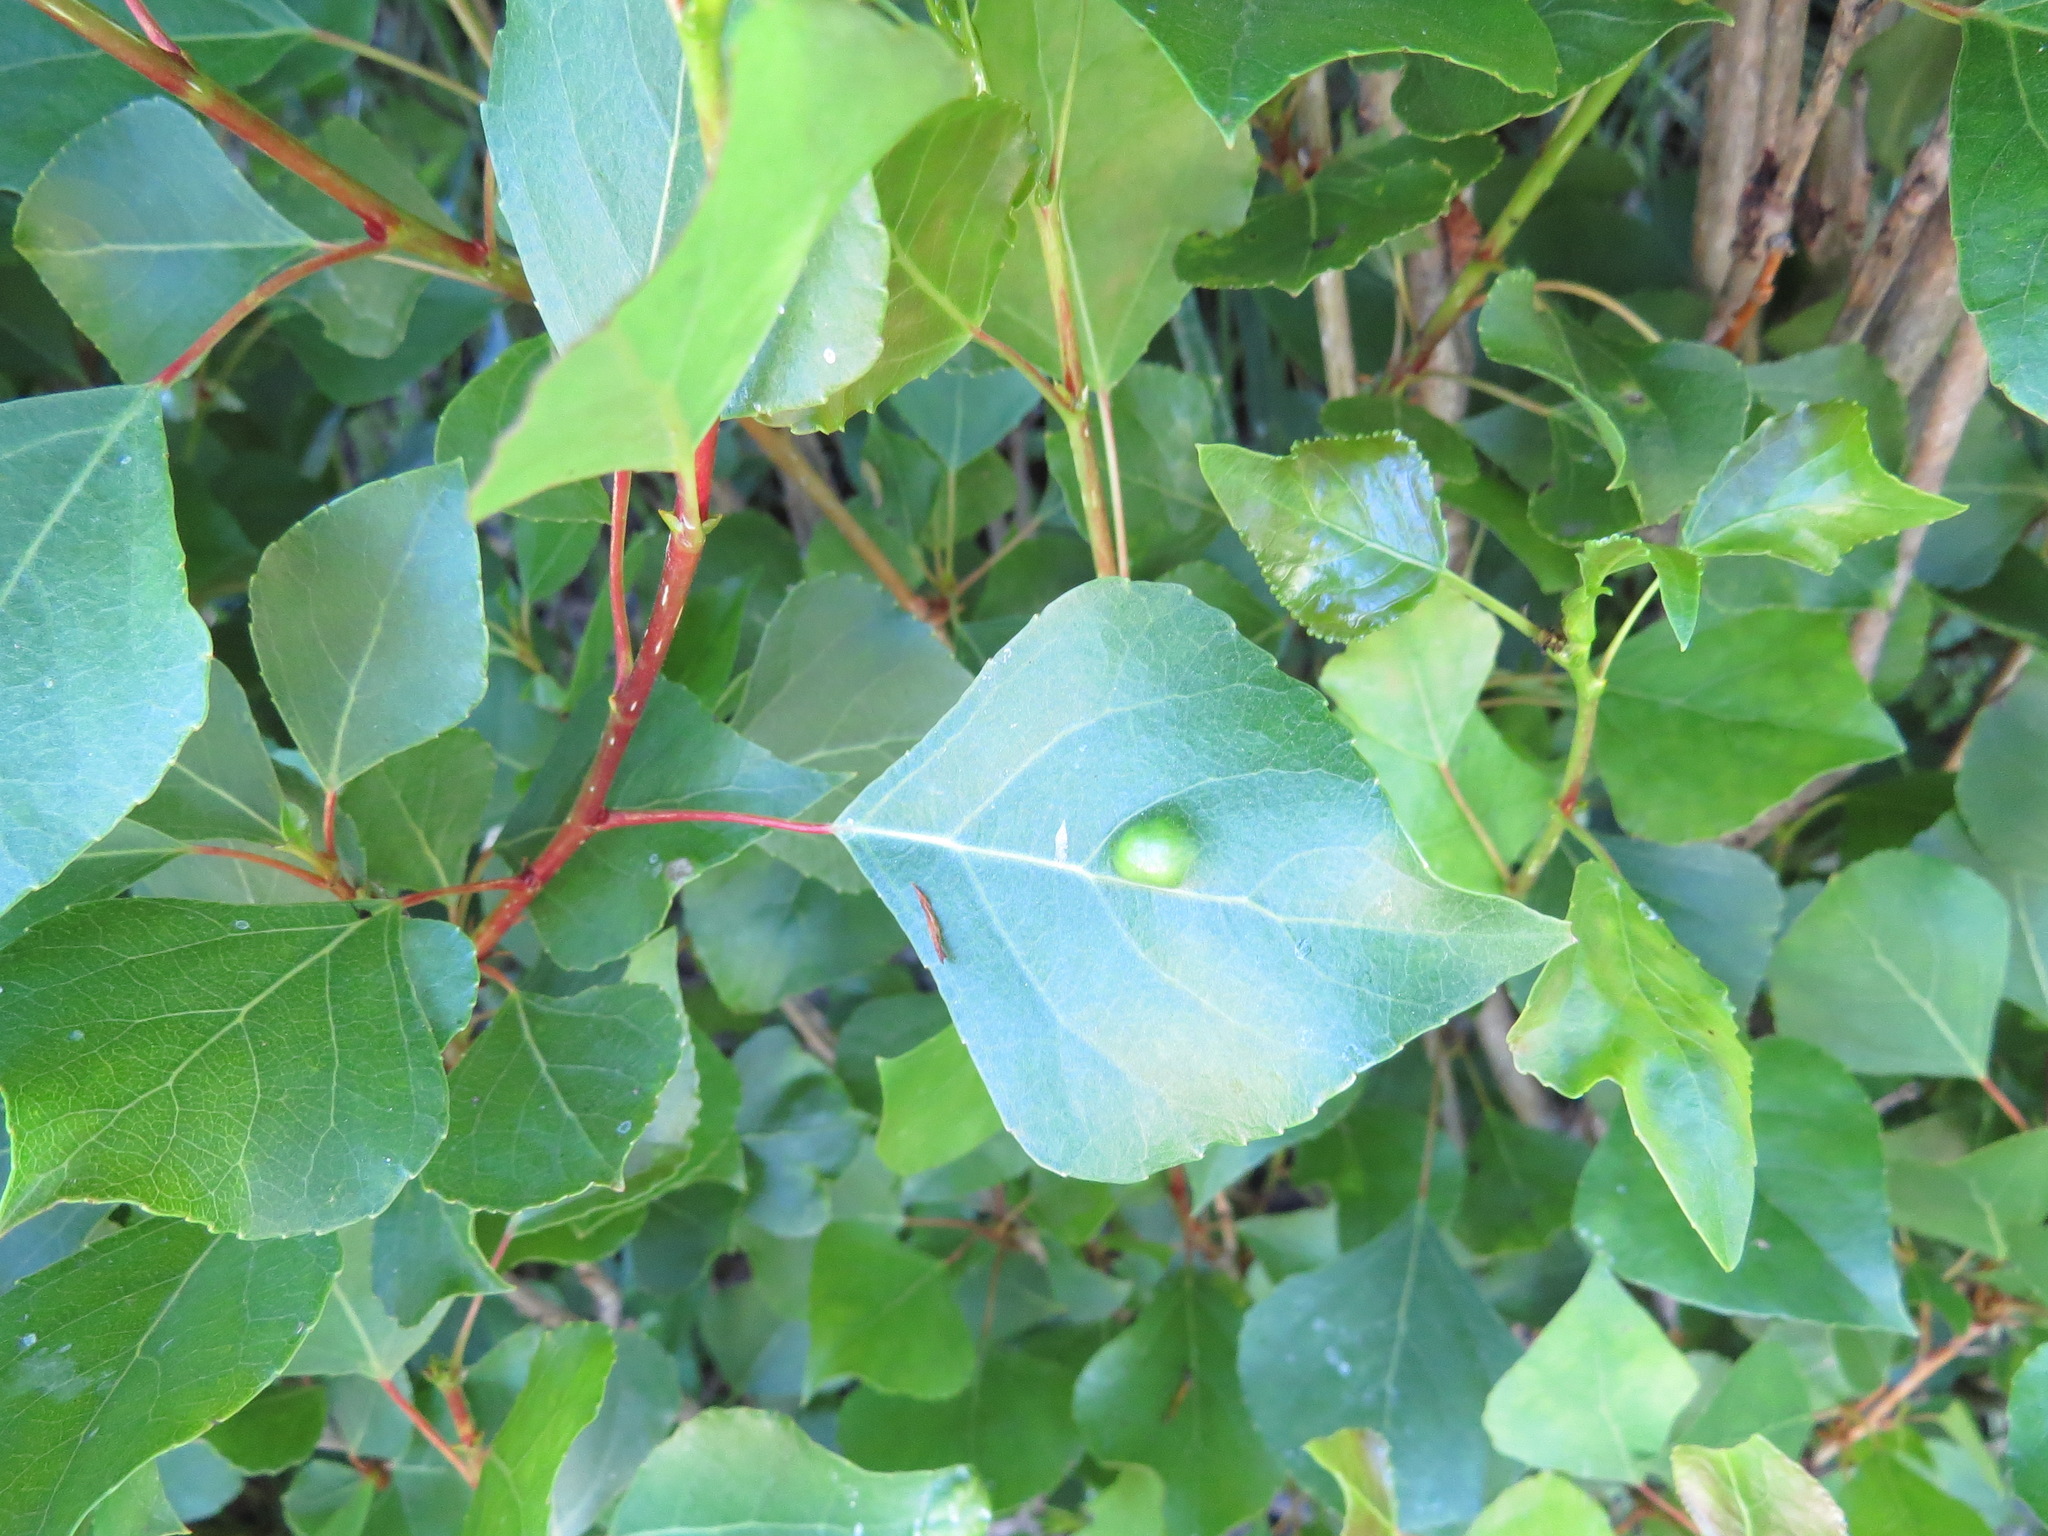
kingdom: Fungi
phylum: Ascomycota
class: Taphrinomycetes
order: Taphrinales
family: Taphrinaceae
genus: Taphrina
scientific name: Taphrina populi-salicis
